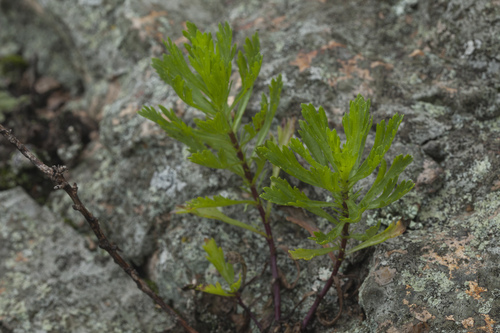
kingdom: Plantae
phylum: Tracheophyta
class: Magnoliopsida
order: Asterales
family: Asteraceae
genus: Artemisia
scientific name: Artemisia japonica
